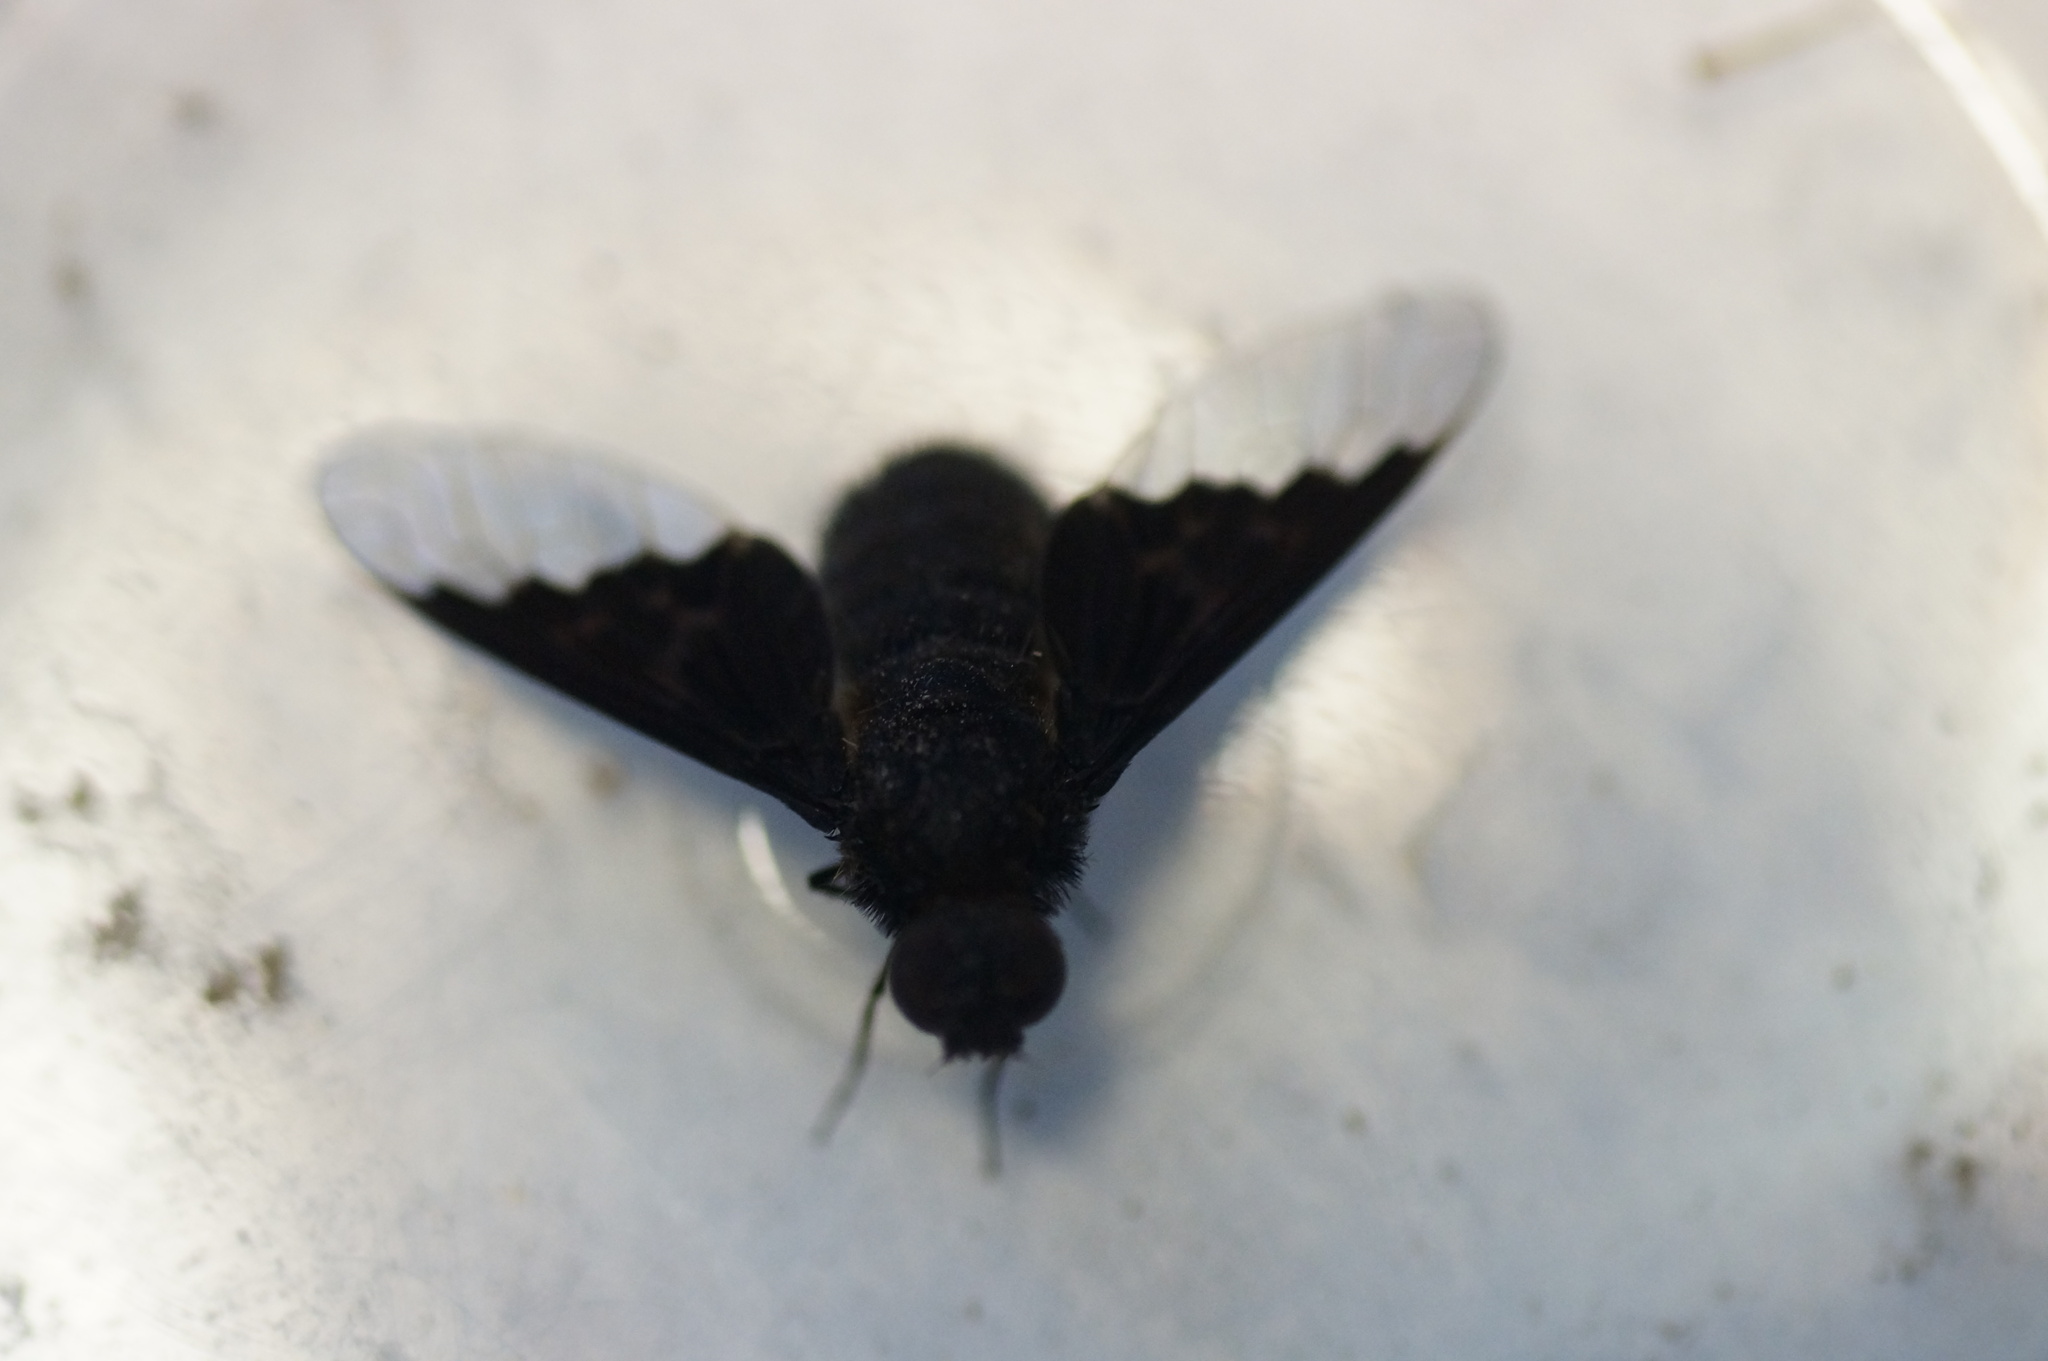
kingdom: Animalia
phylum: Arthropoda
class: Insecta
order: Diptera
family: Bombyliidae
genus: Hemipenthes
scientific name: Hemipenthes morio
